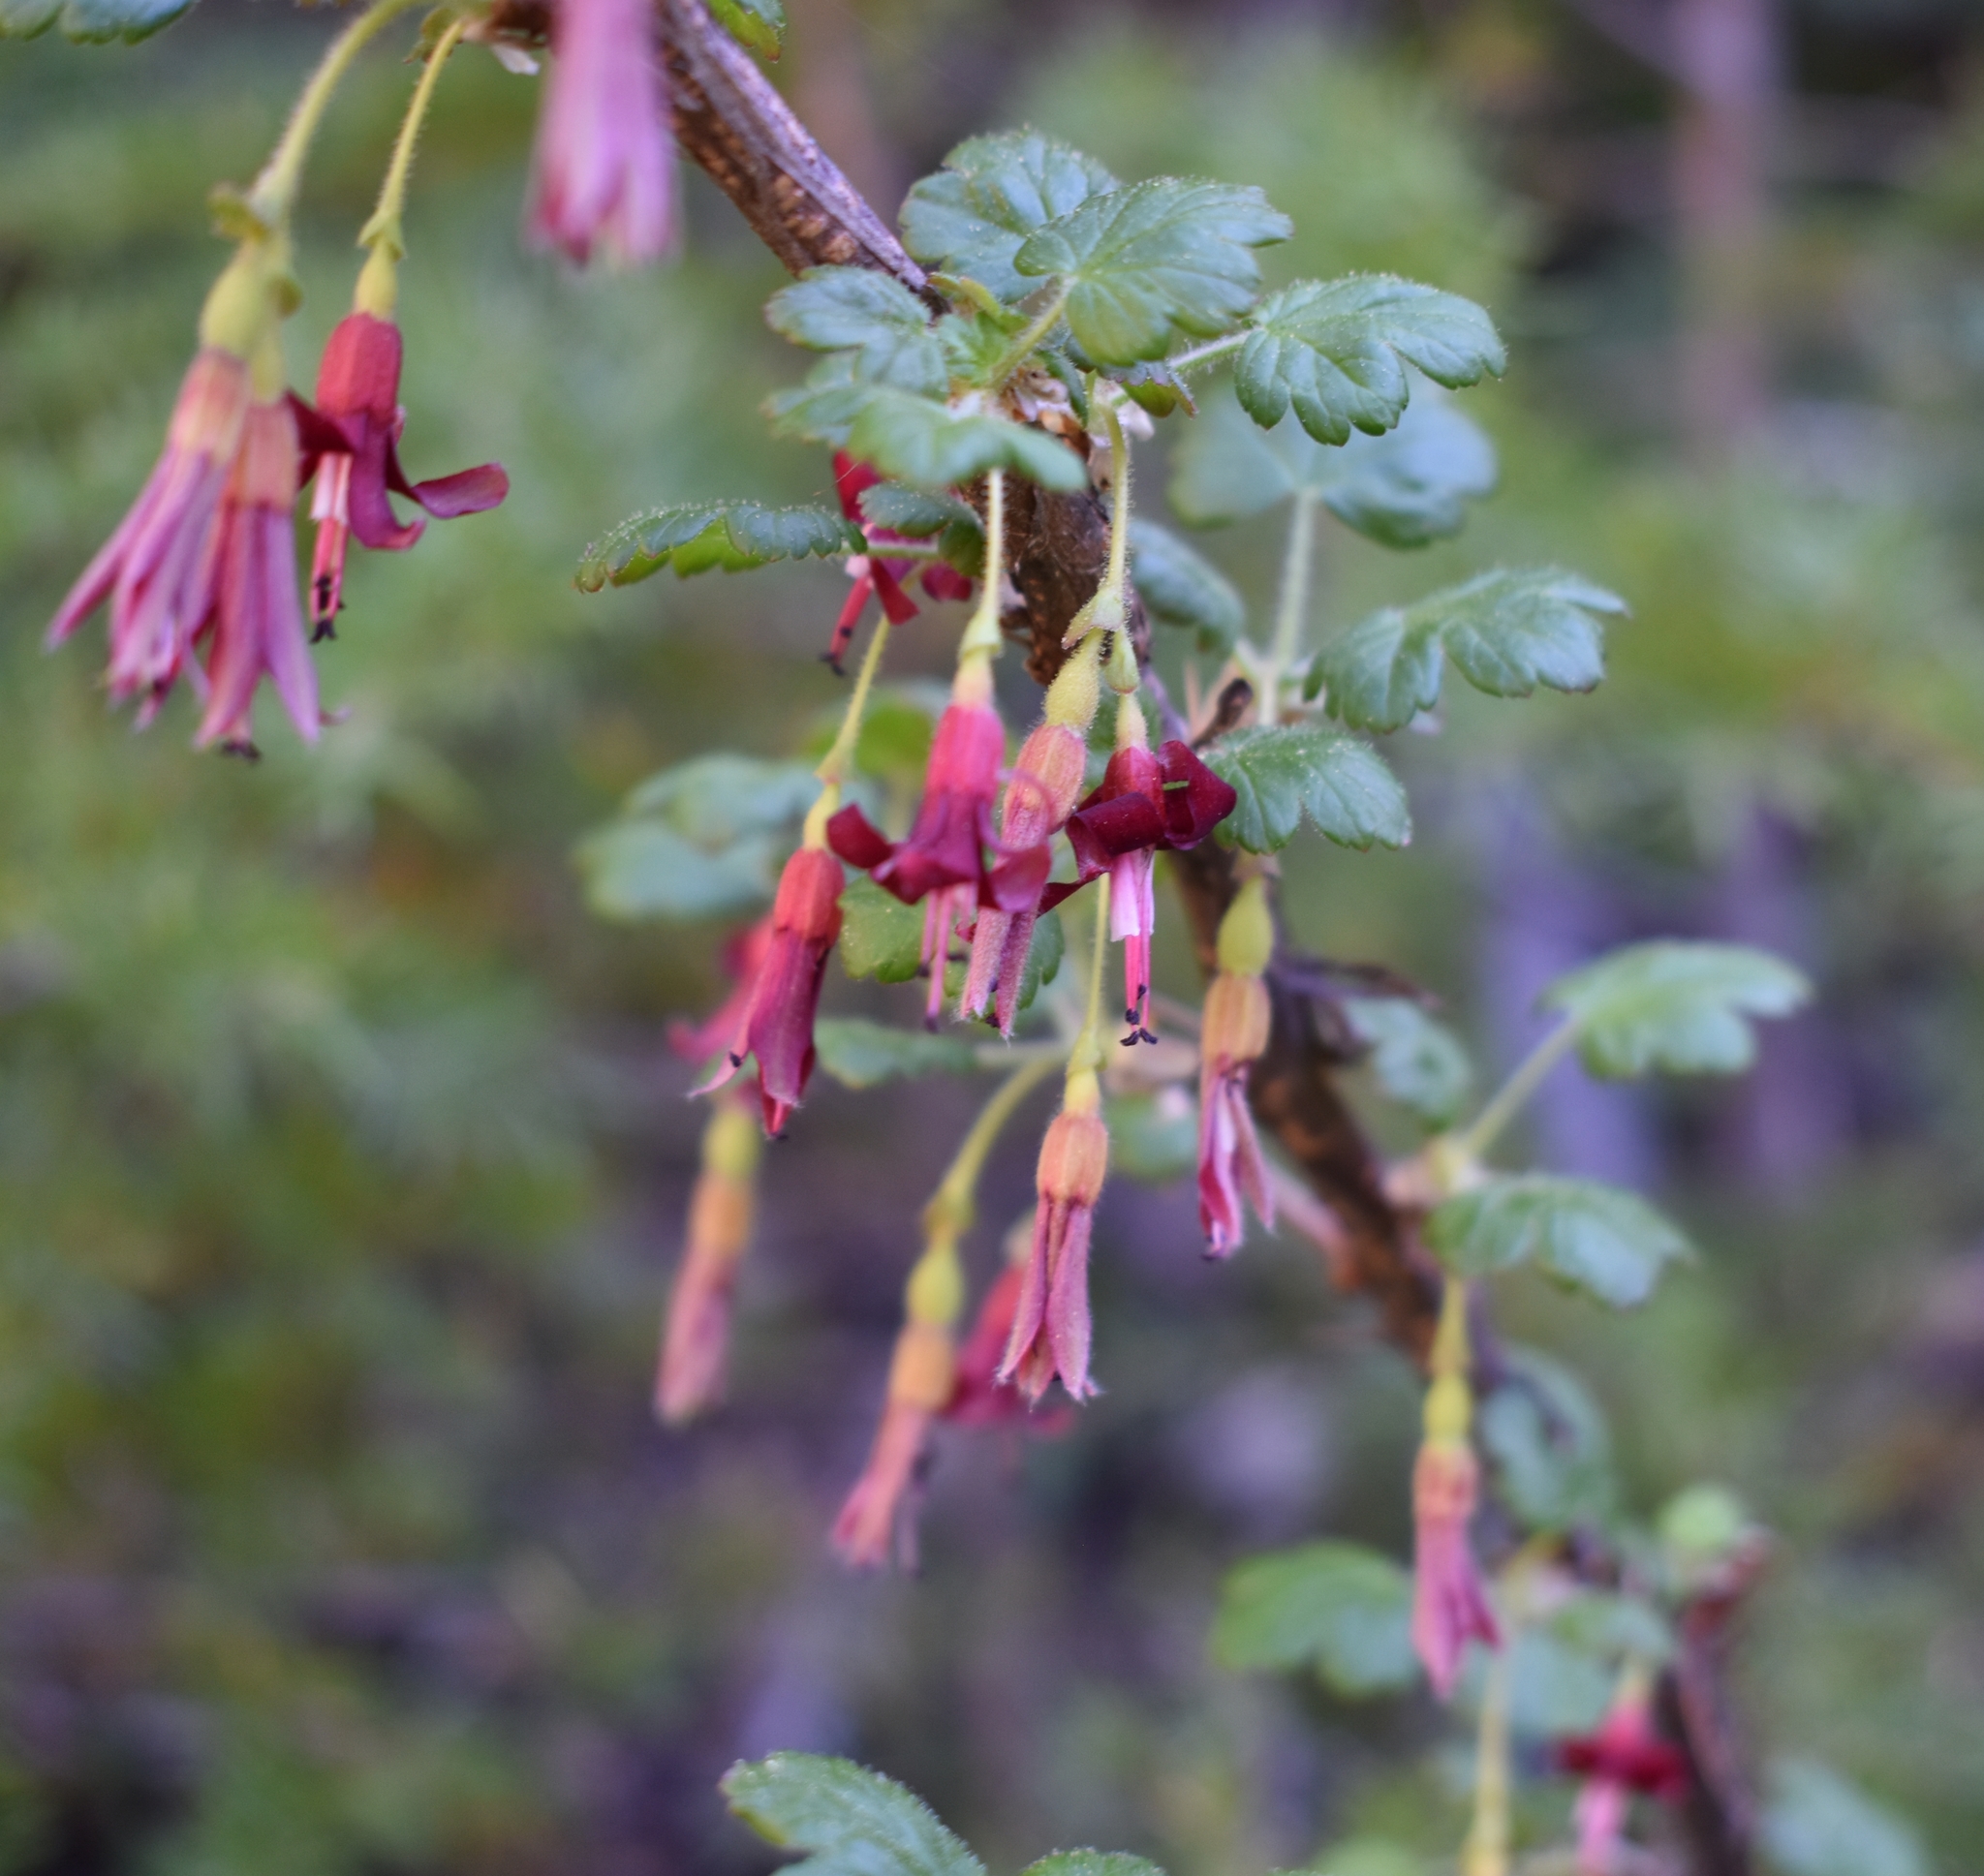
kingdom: Plantae
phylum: Tracheophyta
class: Magnoliopsida
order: Saxifragales
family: Grossulariaceae
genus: Ribes
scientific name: Ribes lobbii
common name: Gummy gooseberry
